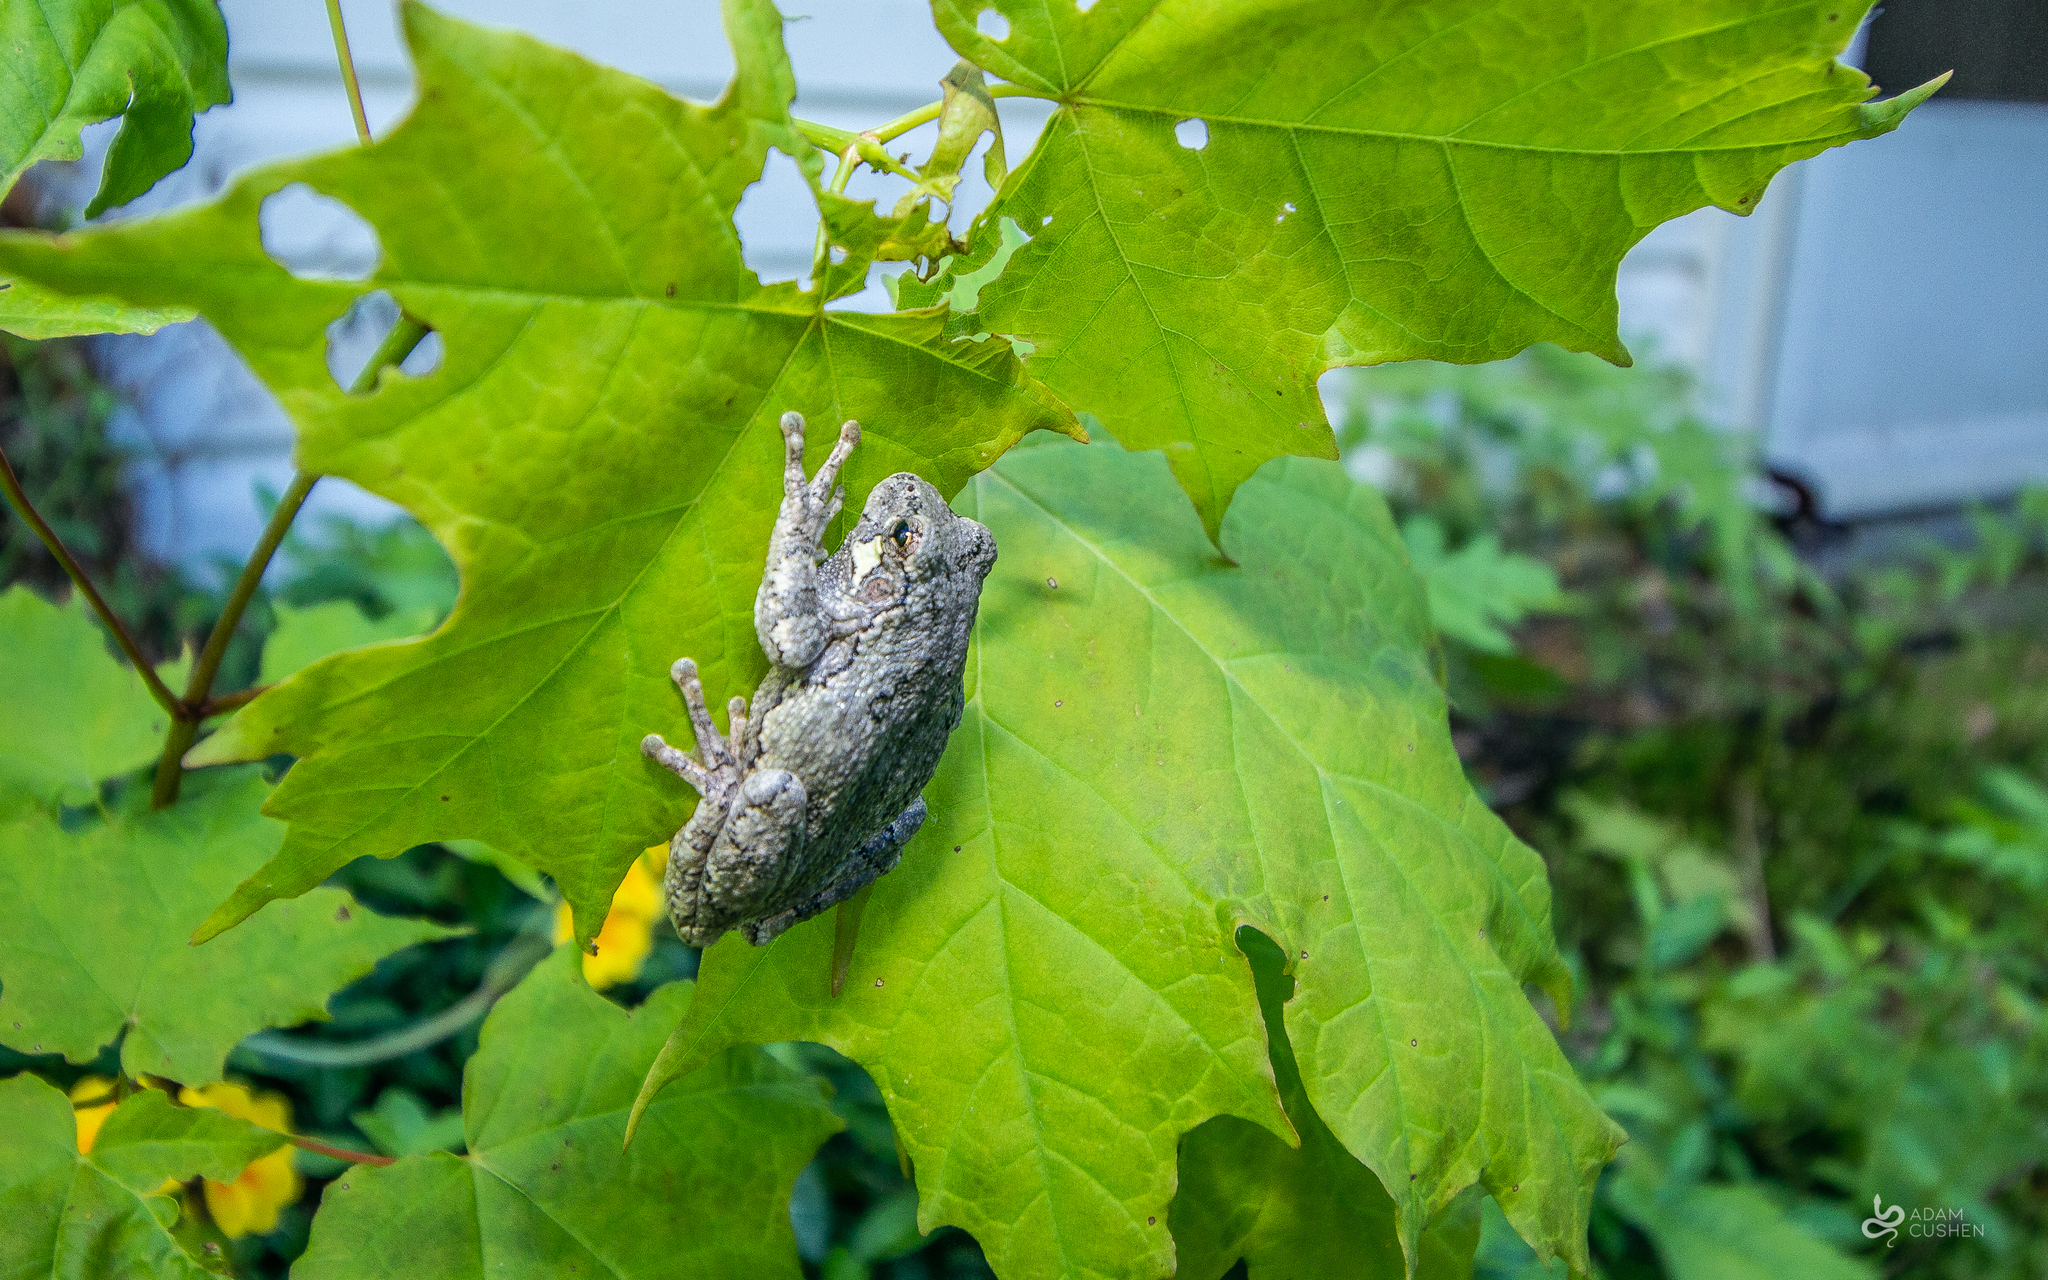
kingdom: Animalia
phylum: Chordata
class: Amphibia
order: Anura
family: Hylidae
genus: Dryophytes
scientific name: Dryophytes versicolor
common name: Gray treefrog
